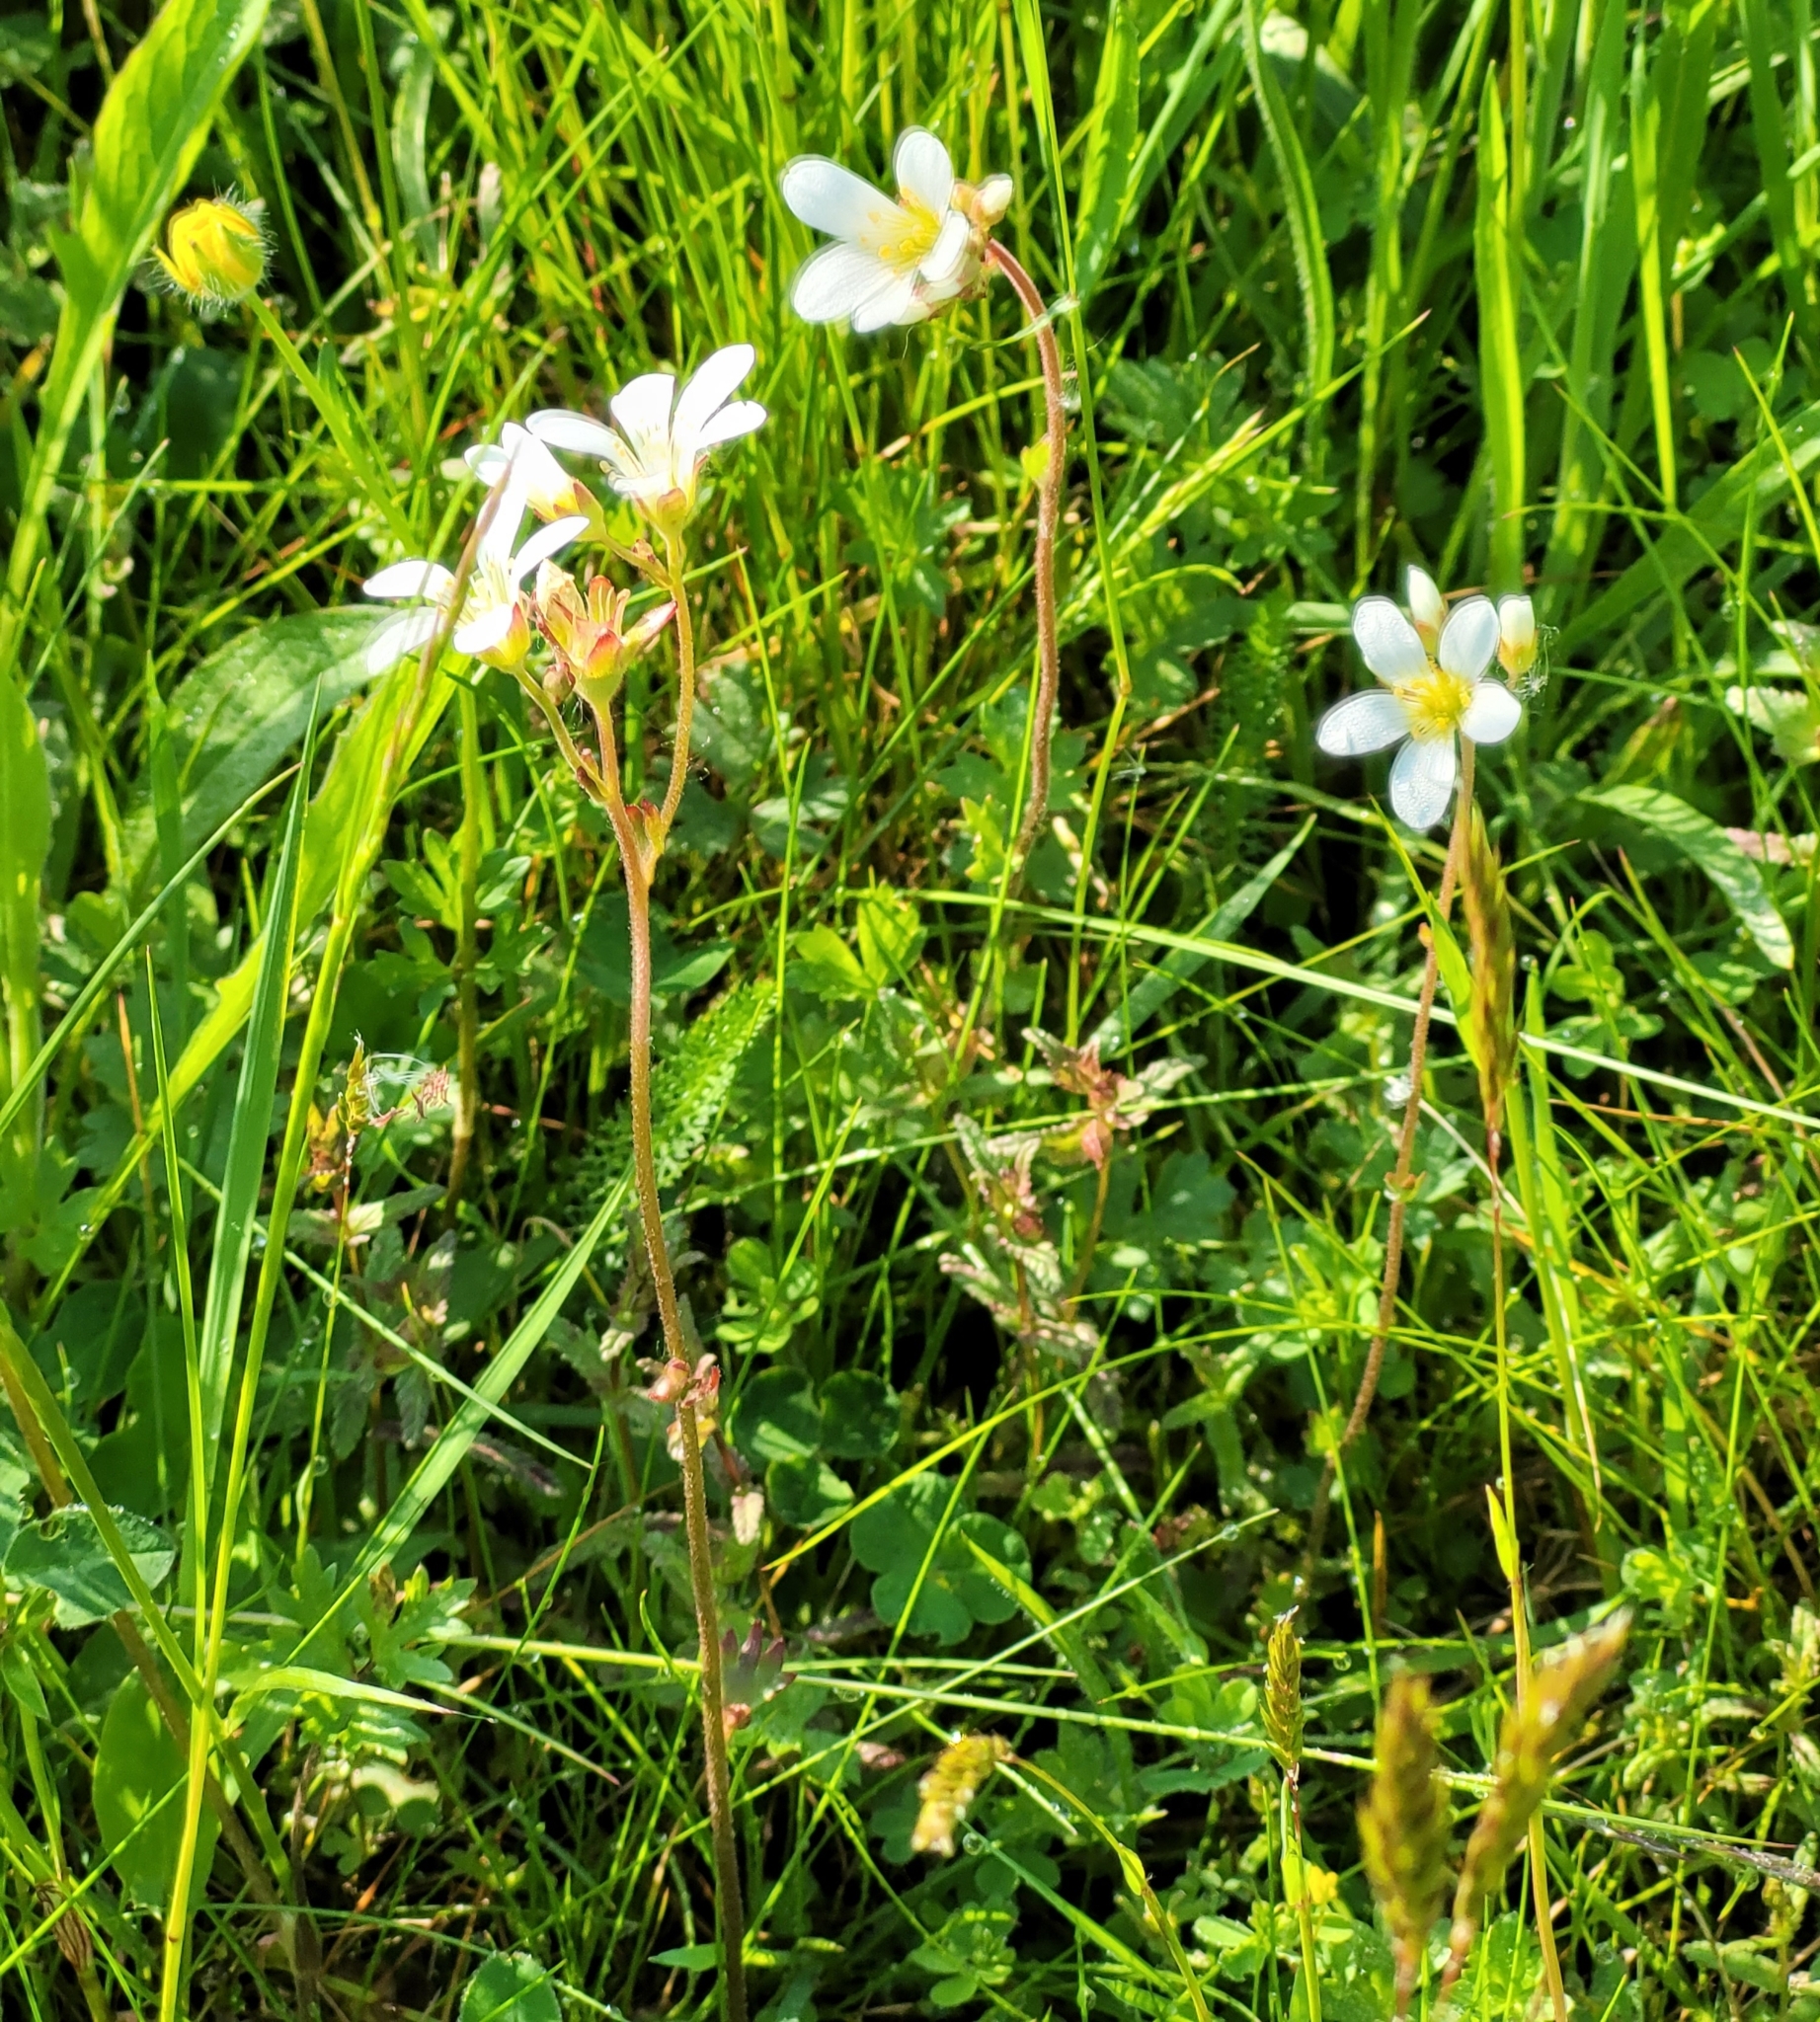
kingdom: Plantae
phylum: Tracheophyta
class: Magnoliopsida
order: Saxifragales
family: Saxifragaceae
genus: Saxifraga
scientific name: Saxifraga granulata
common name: Meadow saxifrage
